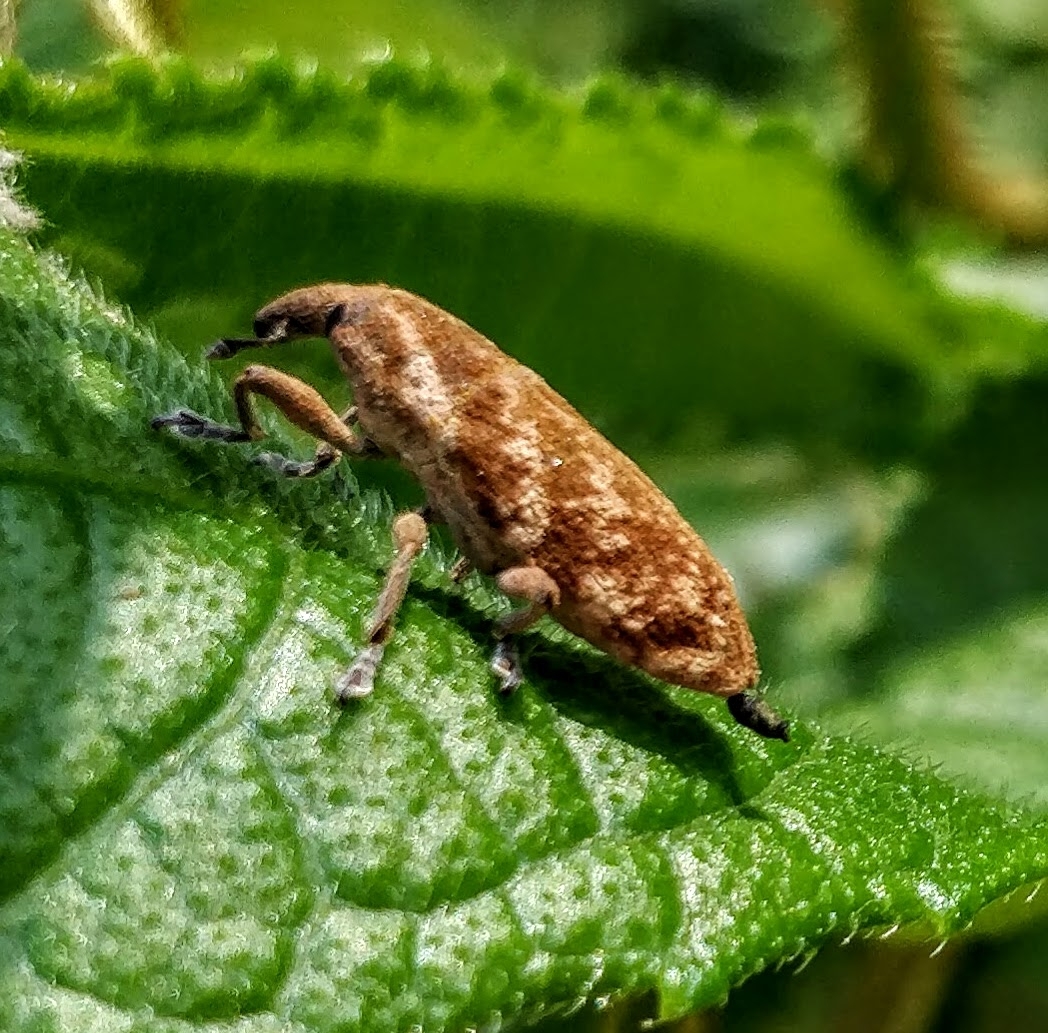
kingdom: Animalia
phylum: Arthropoda
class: Insecta
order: Coleoptera
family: Curculionidae
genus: Gasteroclisus
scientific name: Gasteroclisus
